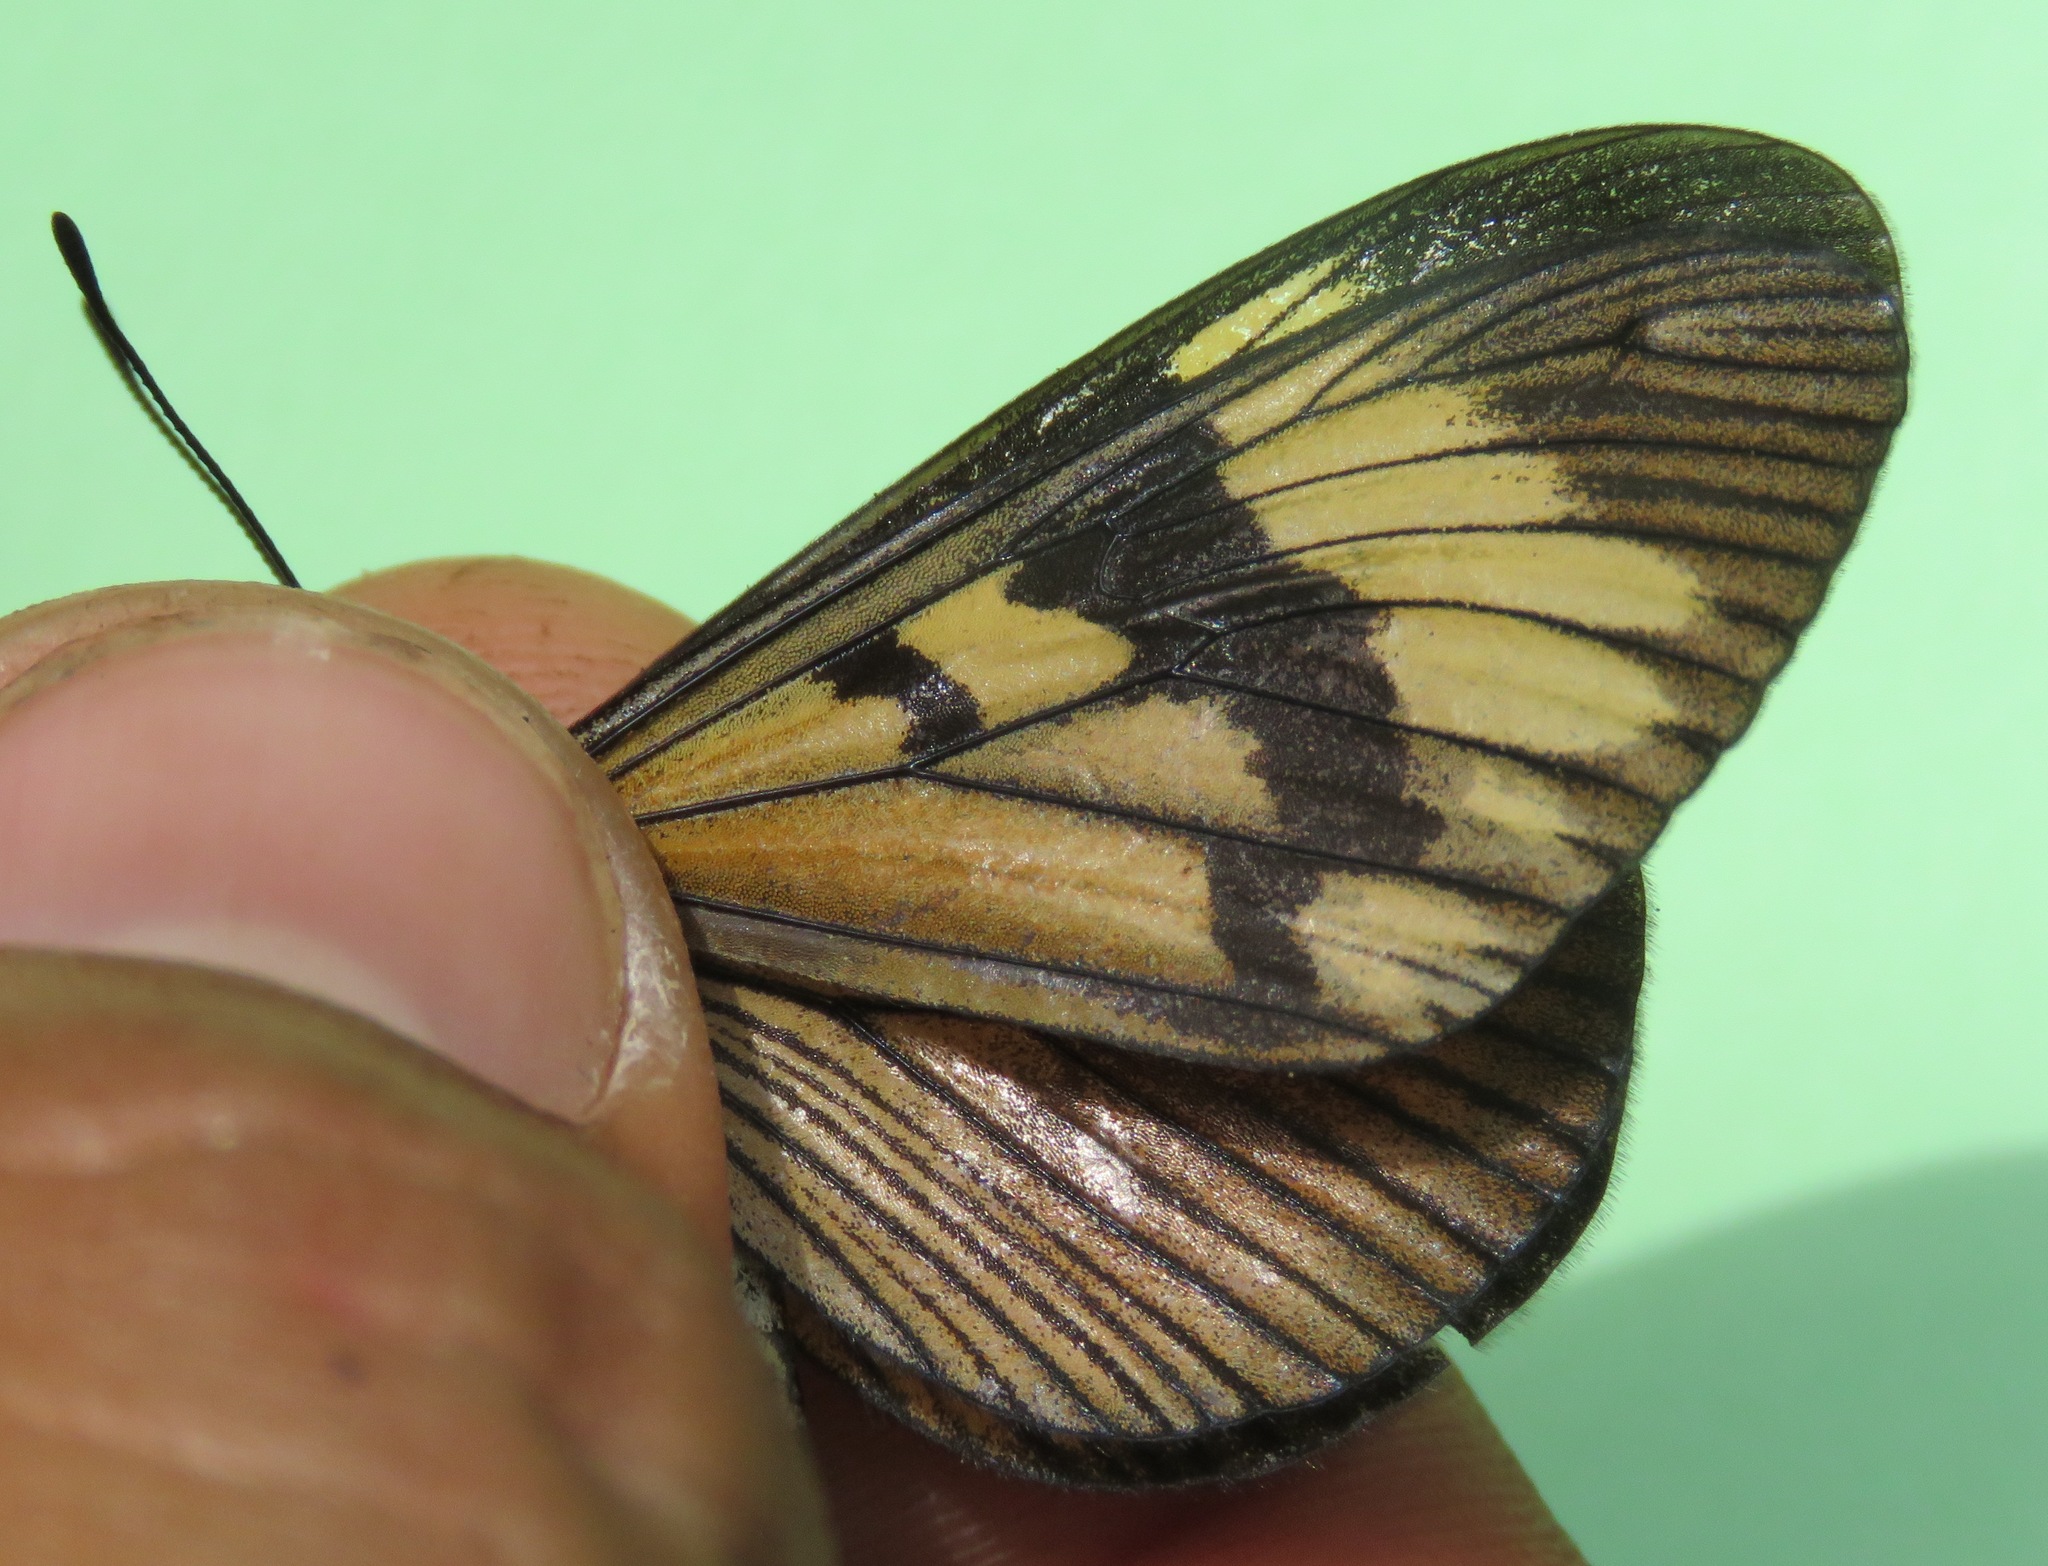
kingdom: Animalia
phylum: Arthropoda
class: Insecta
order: Lepidoptera
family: Nymphalidae
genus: Actinote
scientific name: Actinote anteas
